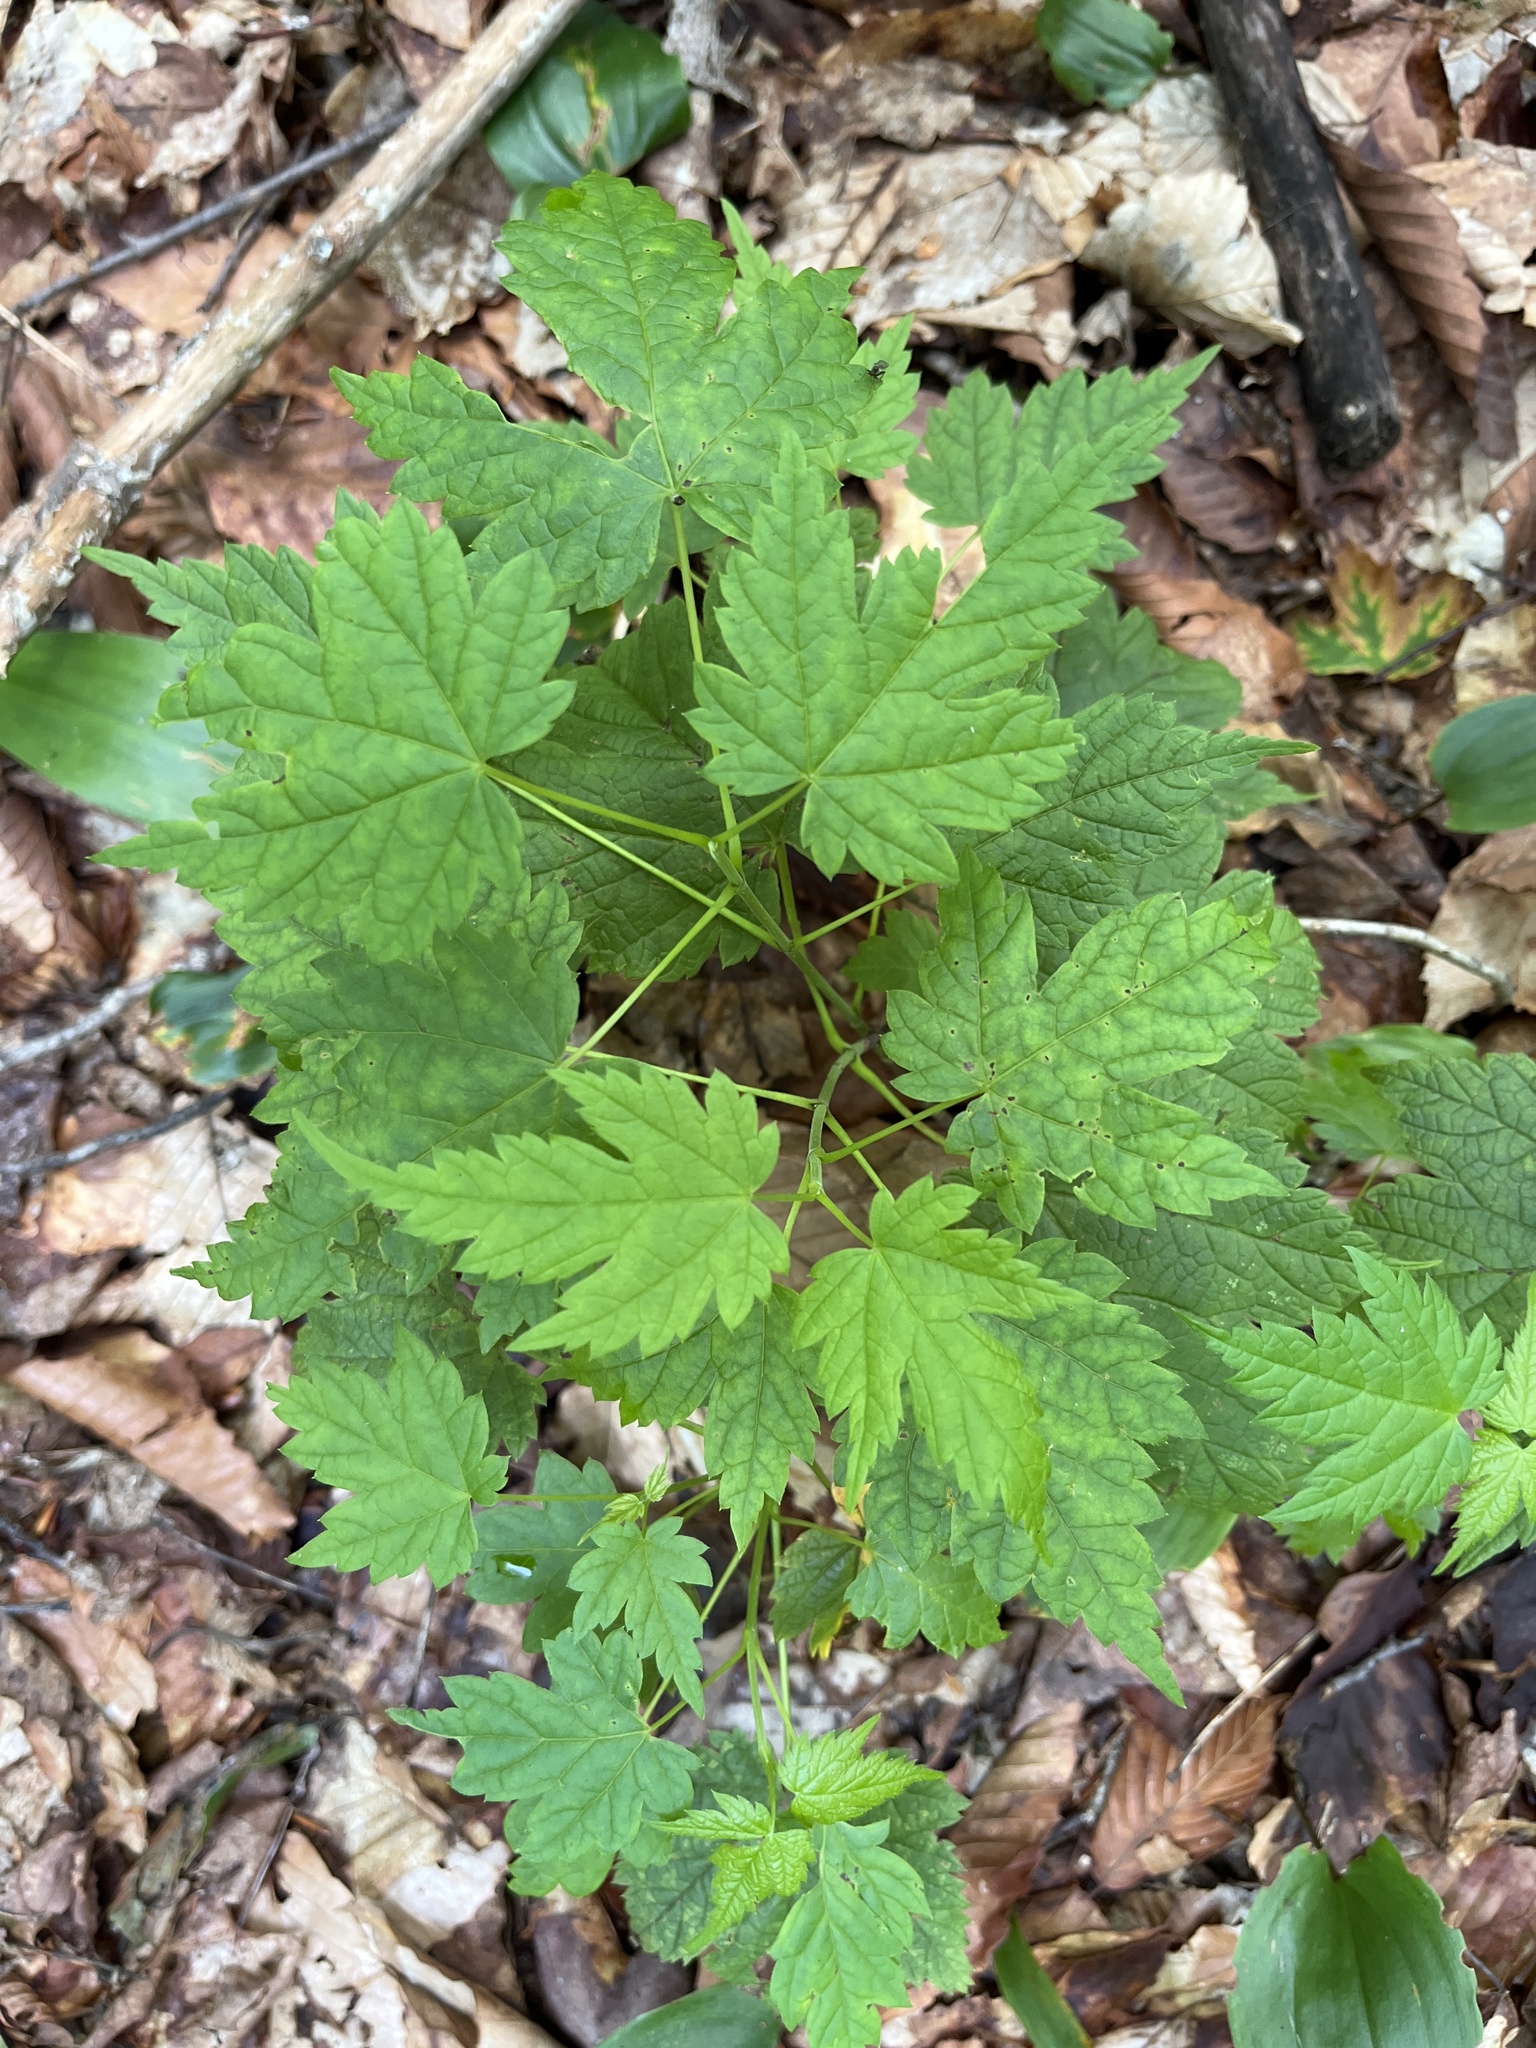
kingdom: Plantae
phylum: Tracheophyta
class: Magnoliopsida
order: Sapindales
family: Sapindaceae
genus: Acer
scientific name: Acer spicatum
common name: Mountain maple
